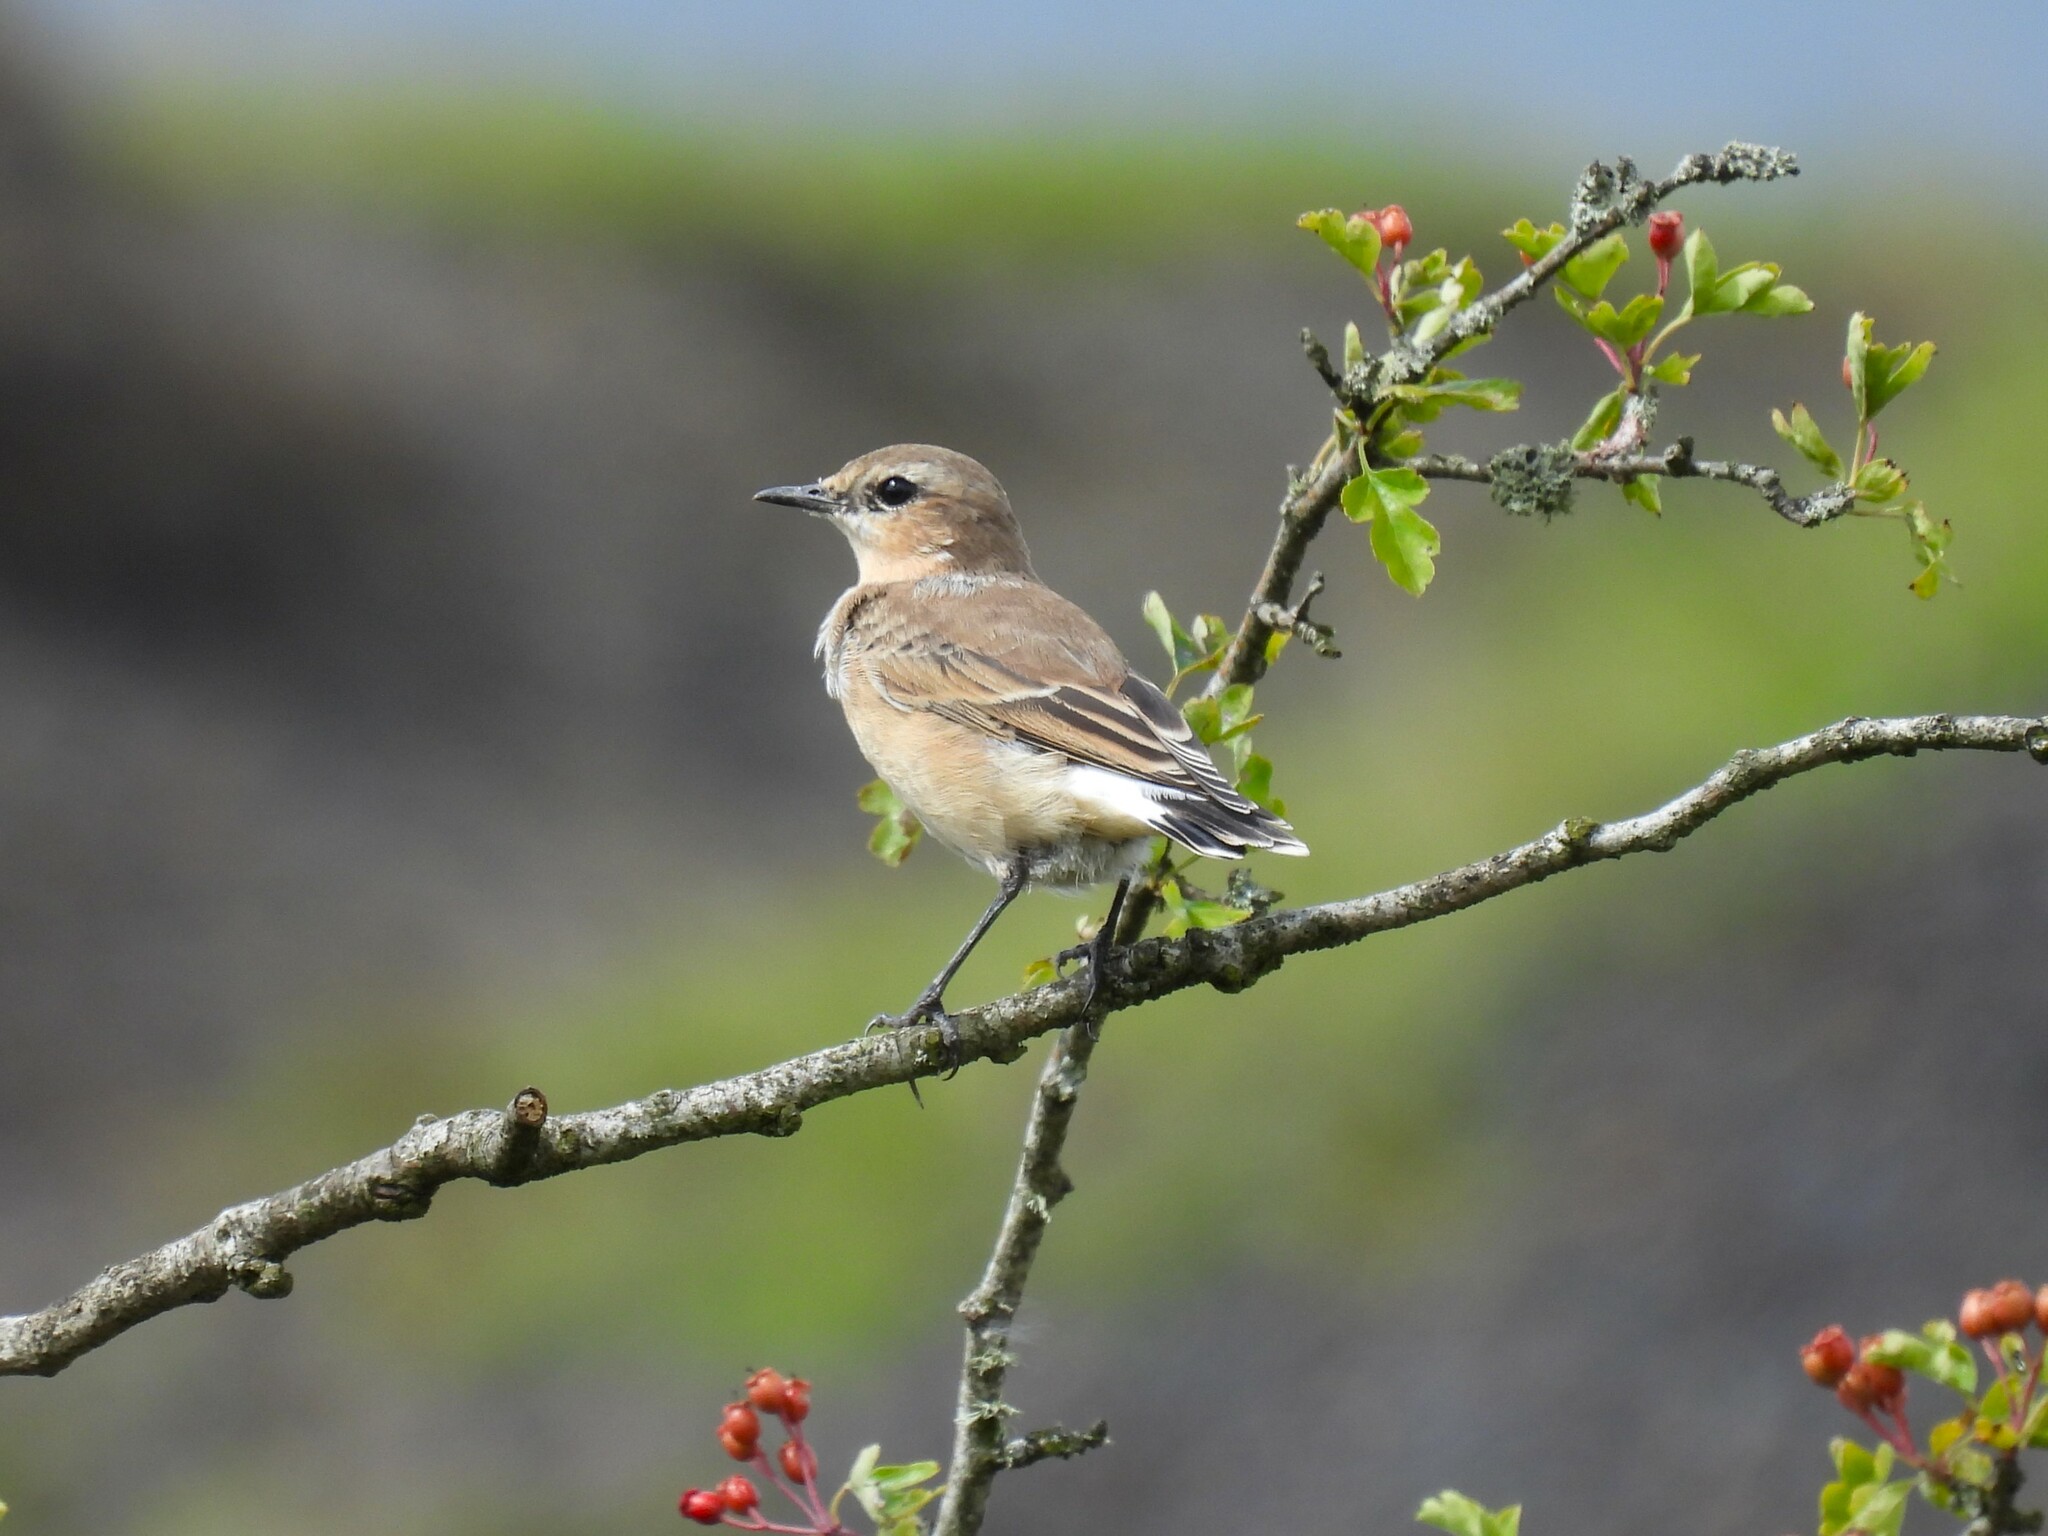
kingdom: Animalia
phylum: Chordata
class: Aves
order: Passeriformes
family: Muscicapidae
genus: Oenanthe
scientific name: Oenanthe oenanthe
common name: Northern wheatear
